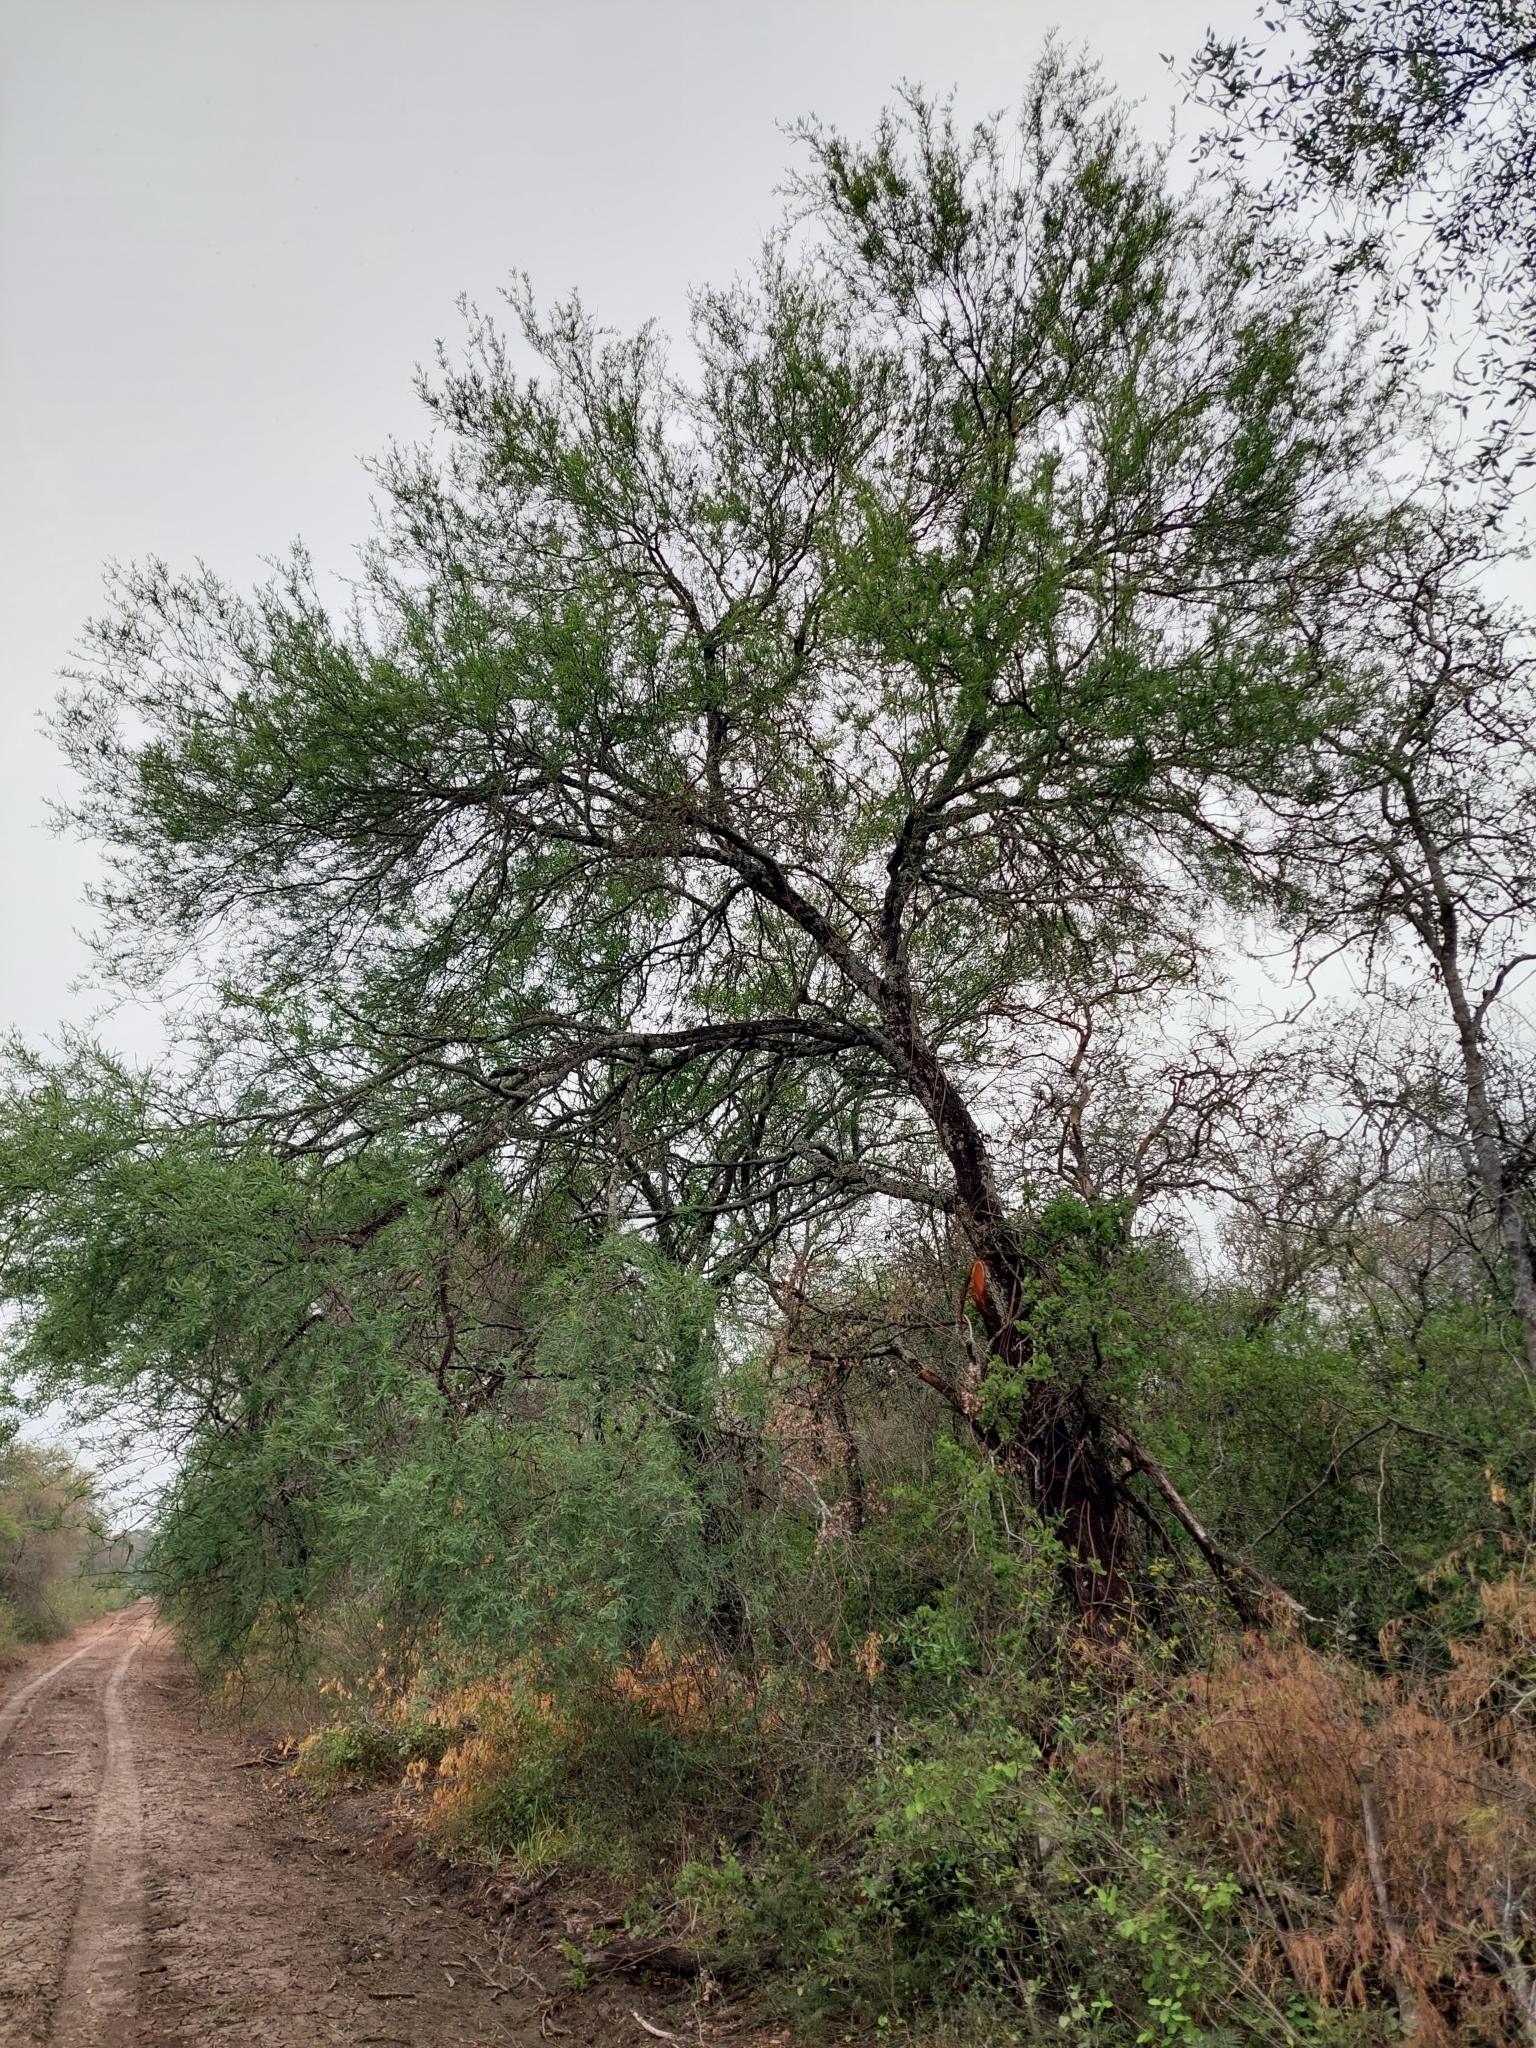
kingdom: Plantae
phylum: Tracheophyta
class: Magnoliopsida
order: Fabales
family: Fabaceae
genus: Prosopis
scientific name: Prosopis nigra
